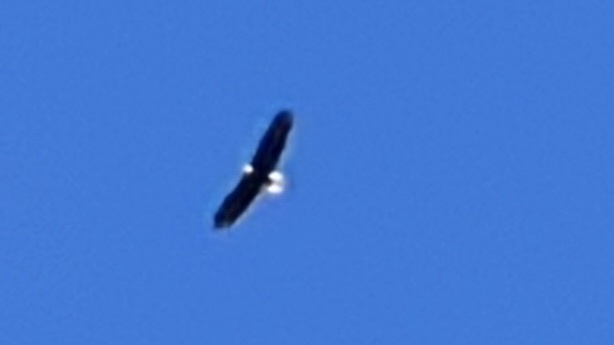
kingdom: Animalia
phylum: Chordata
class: Aves
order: Accipitriformes
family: Accipitridae
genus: Haliaeetus
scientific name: Haliaeetus leucocephalus
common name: Bald eagle
